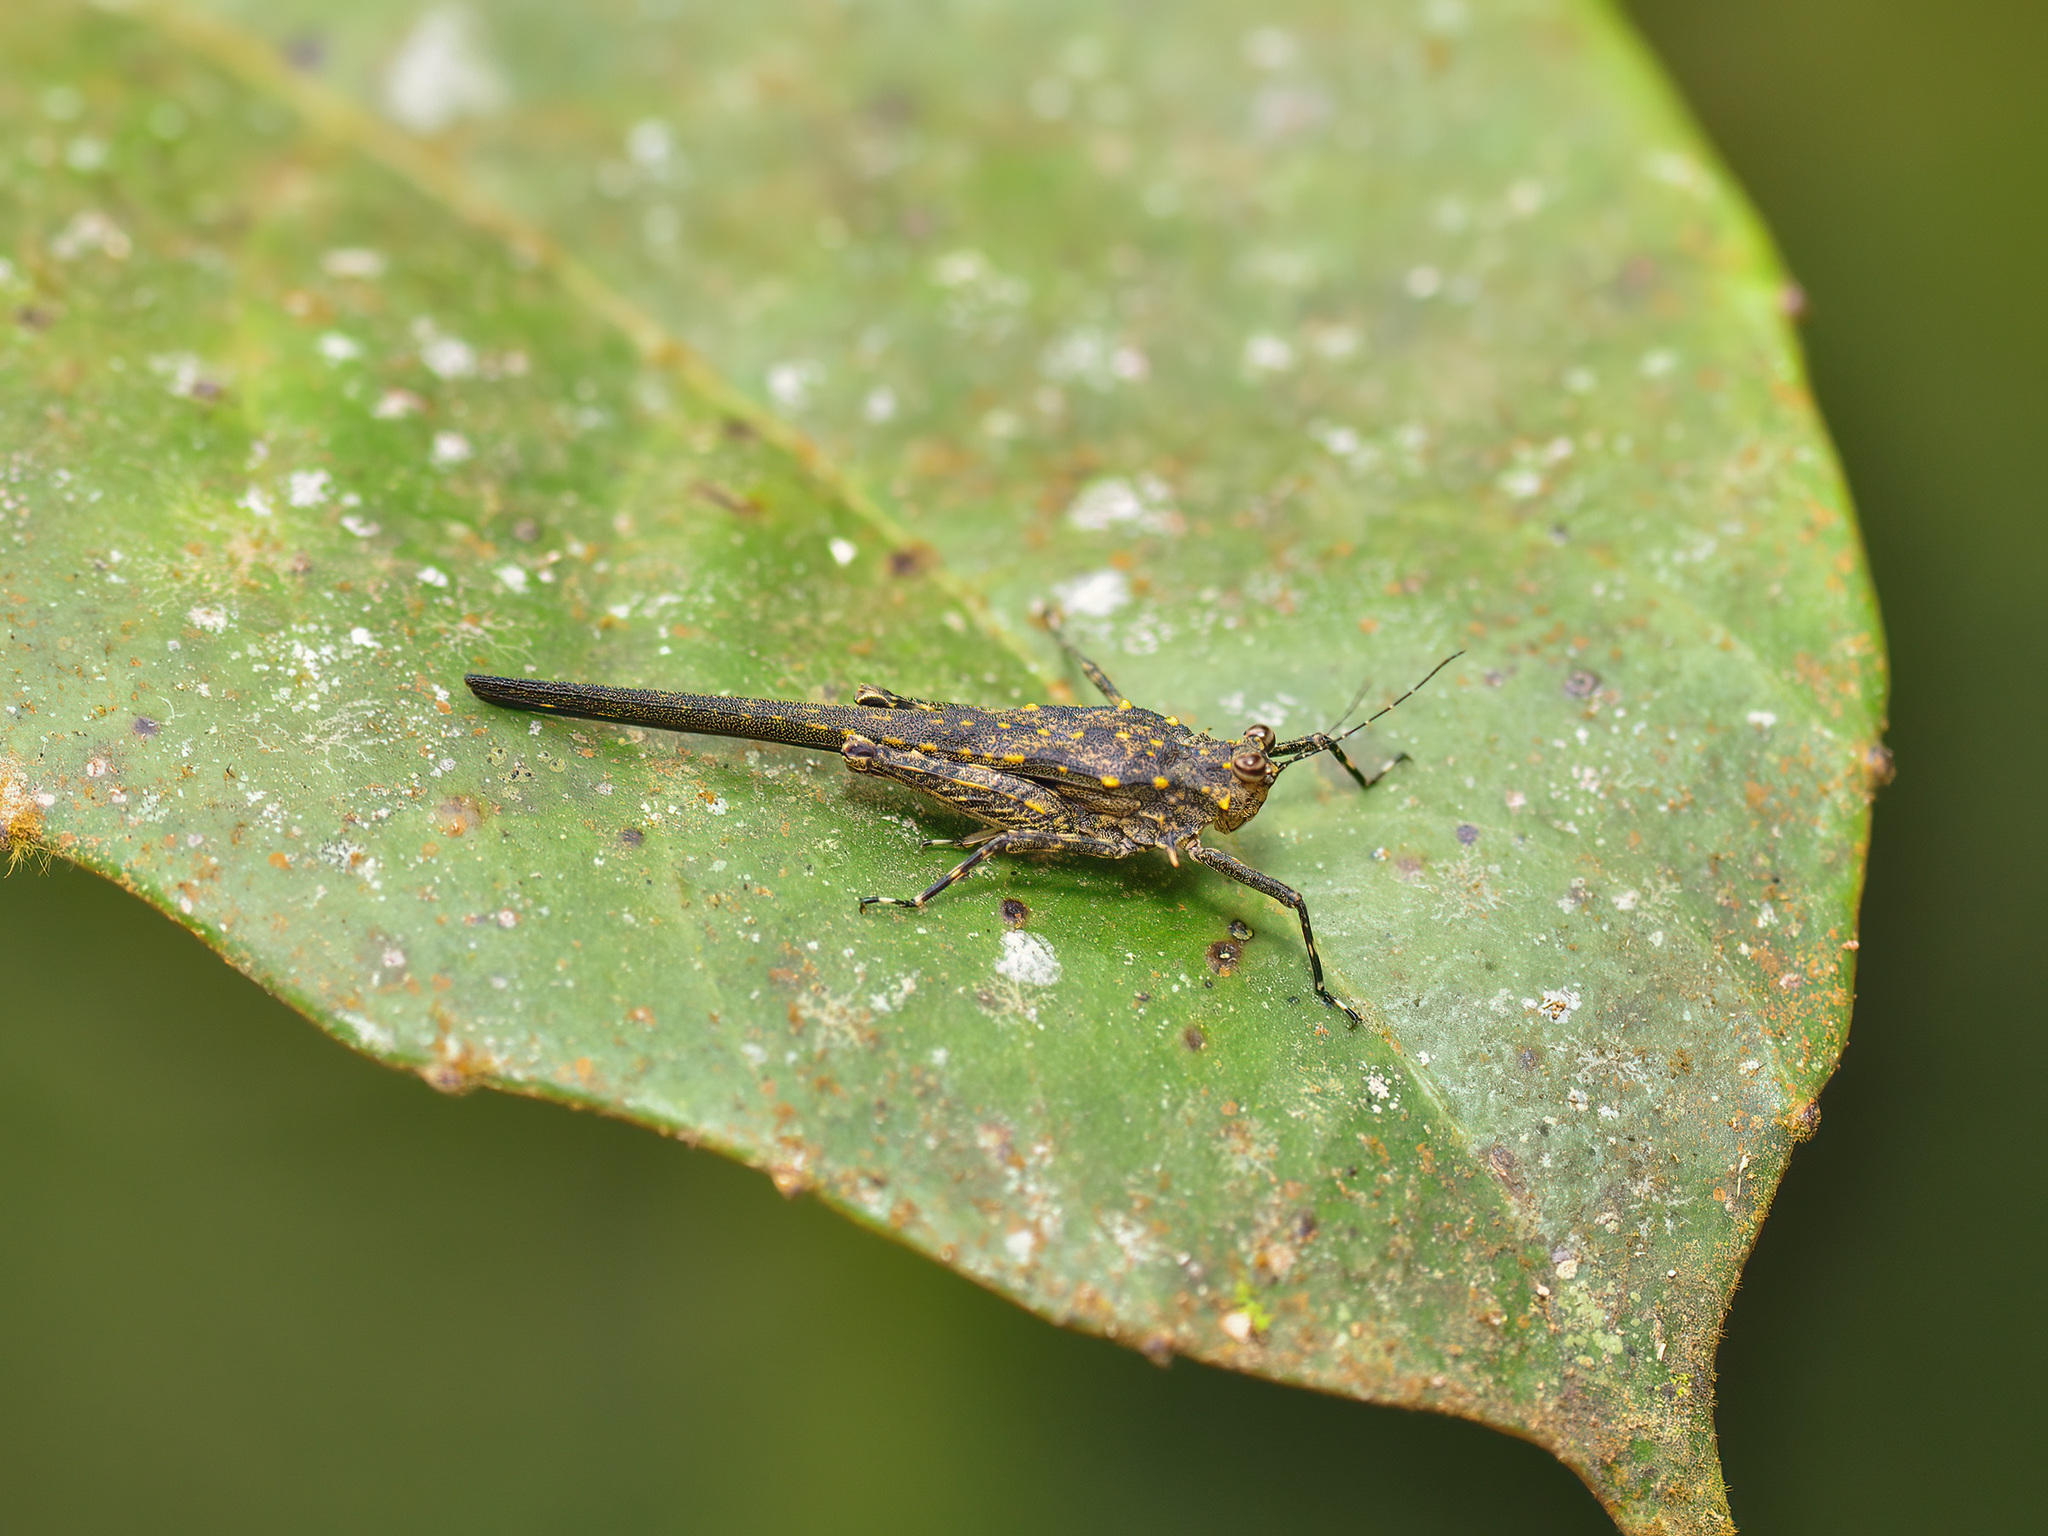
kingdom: Animalia
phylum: Arthropoda
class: Insecta
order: Orthoptera
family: Tetrigidae
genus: Scelimena
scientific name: Scelimena gombakensis
